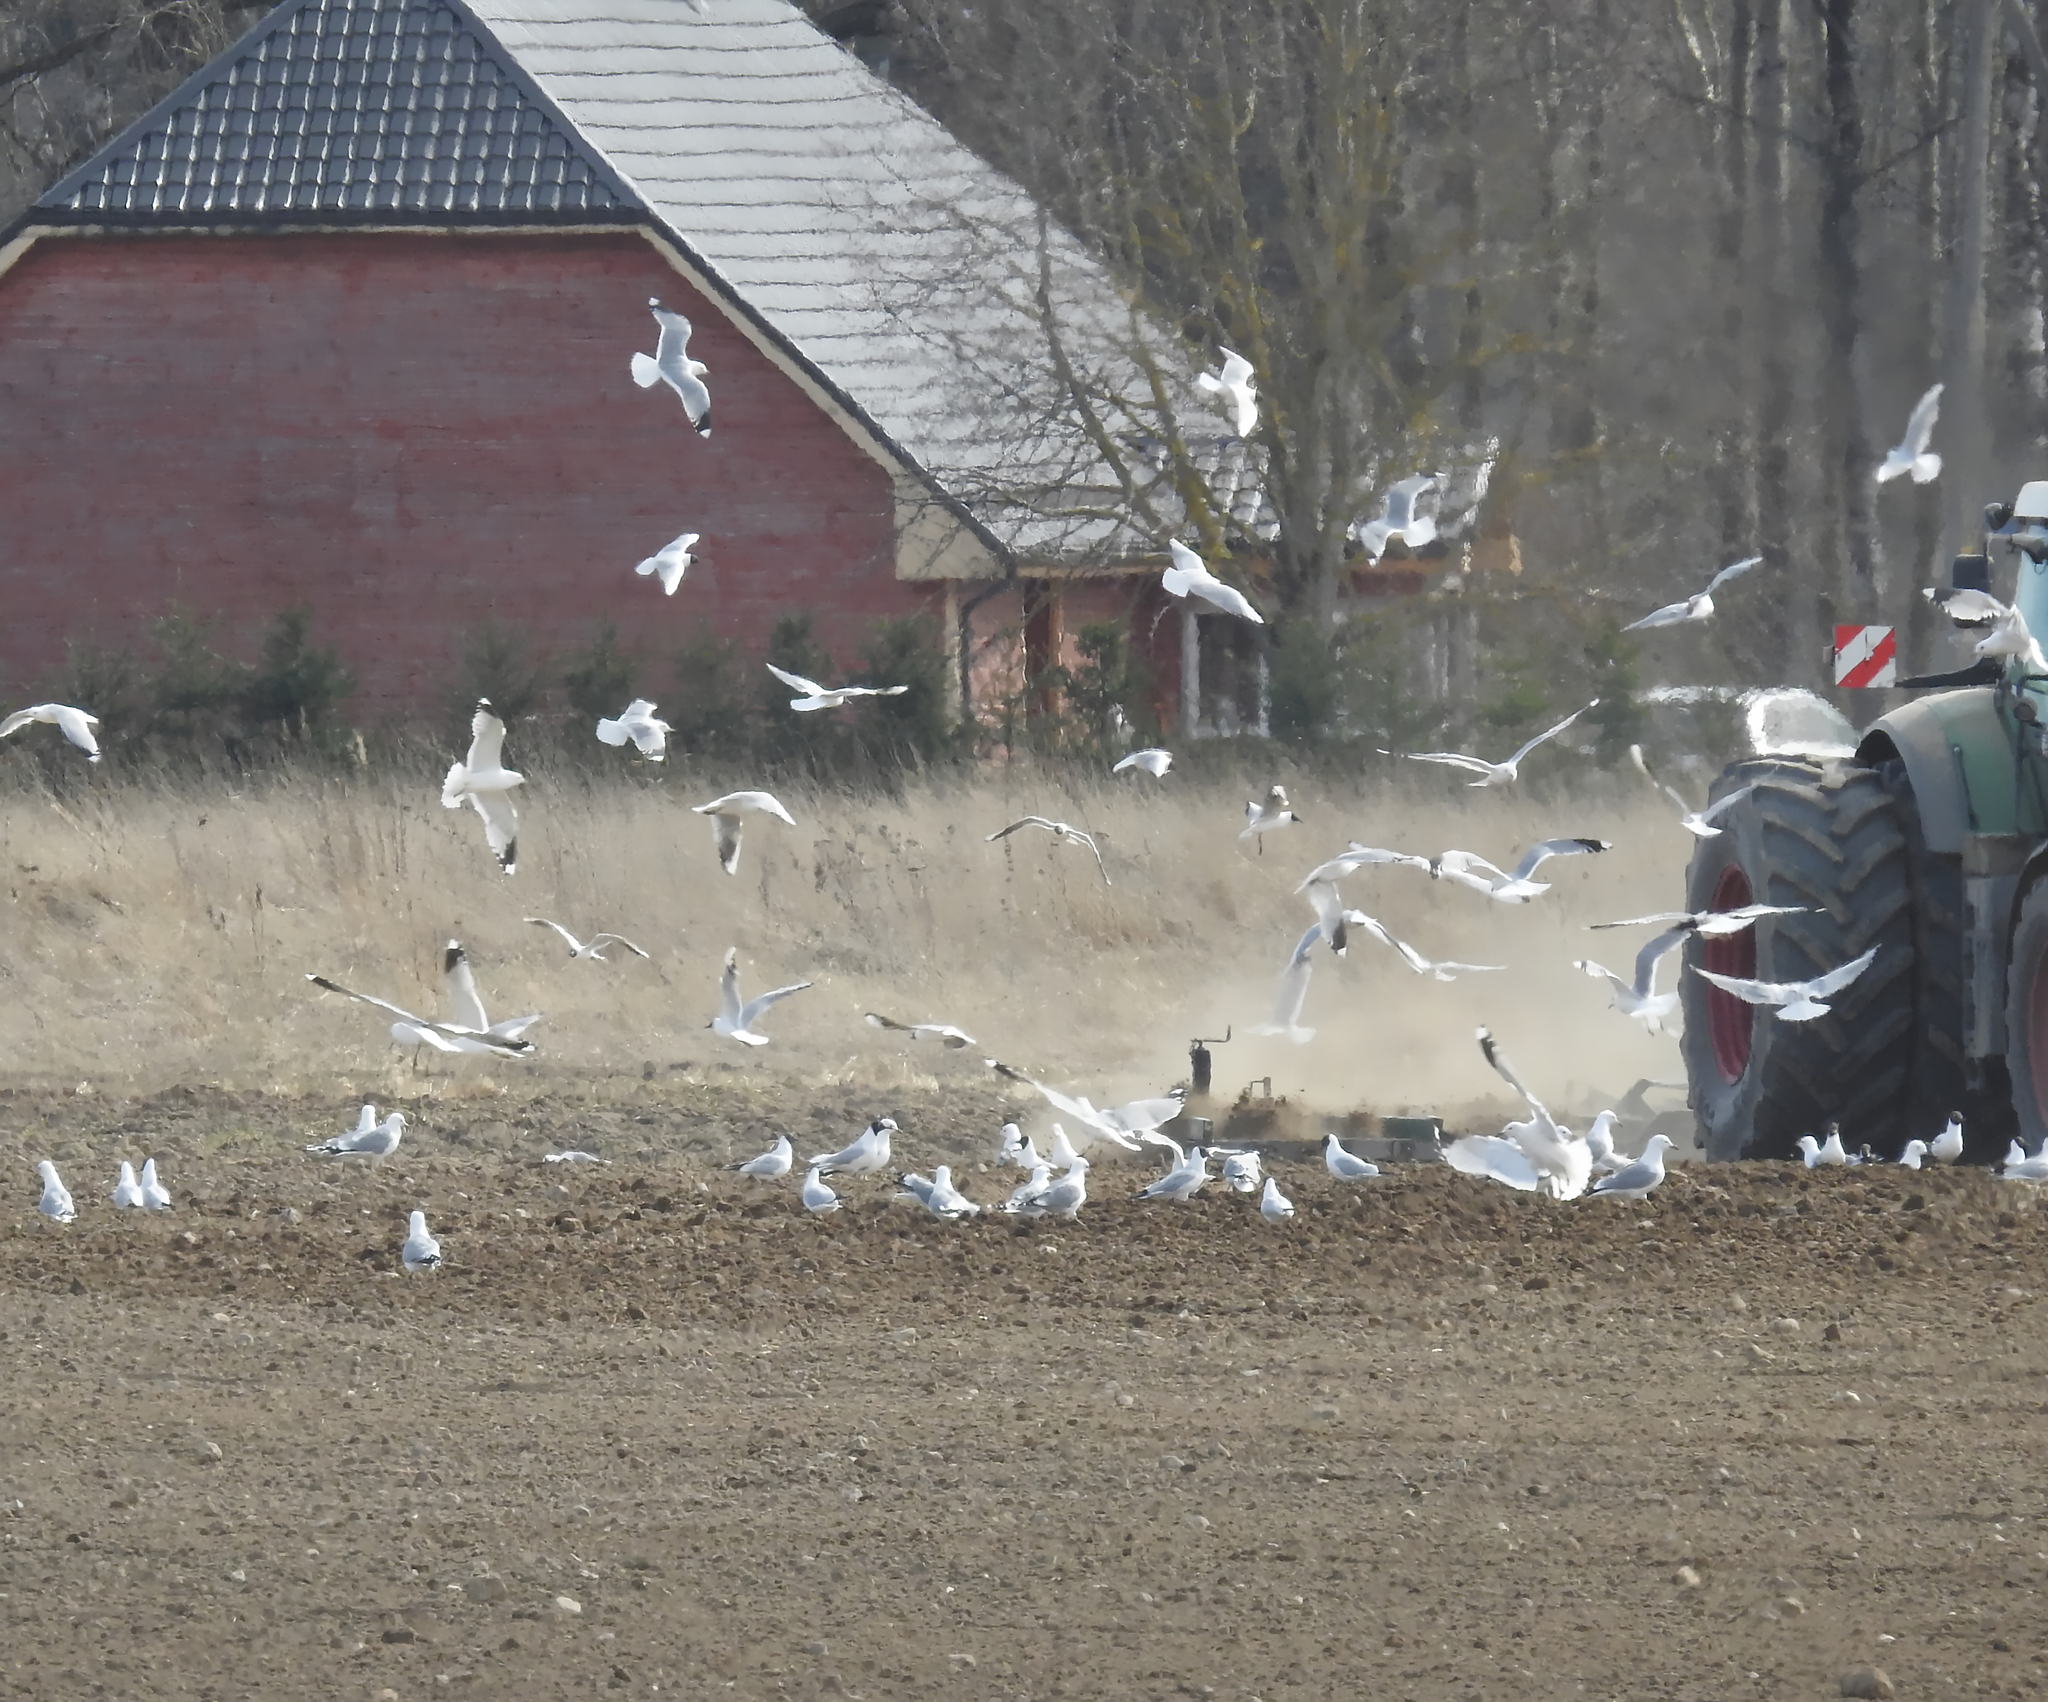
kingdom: Animalia
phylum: Chordata
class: Aves
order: Charadriiformes
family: Laridae
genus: Chroicocephalus
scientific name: Chroicocephalus ridibundus
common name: Black-headed gull
